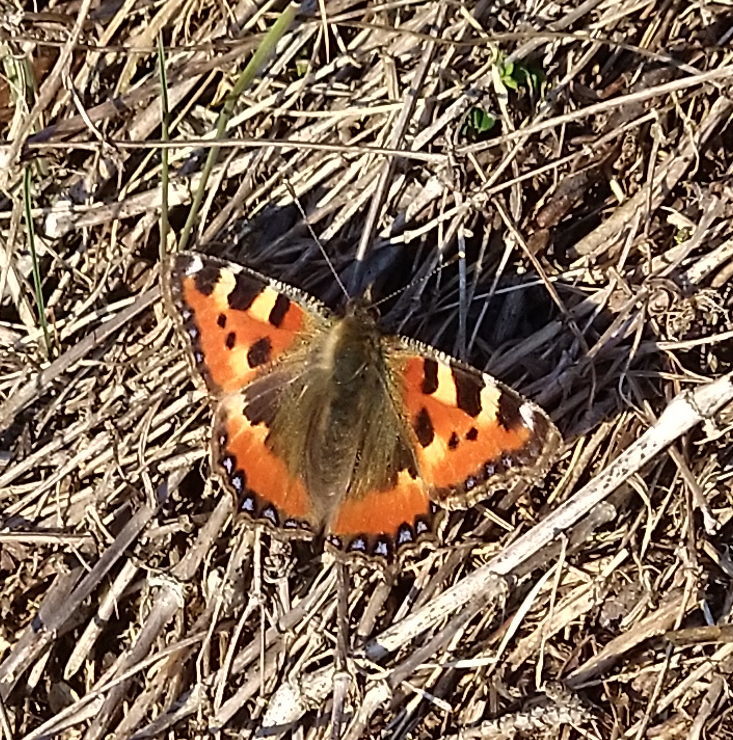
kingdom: Animalia
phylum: Arthropoda
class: Insecta
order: Lepidoptera
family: Nymphalidae
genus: Aglais
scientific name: Aglais urticae
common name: Small tortoiseshell
